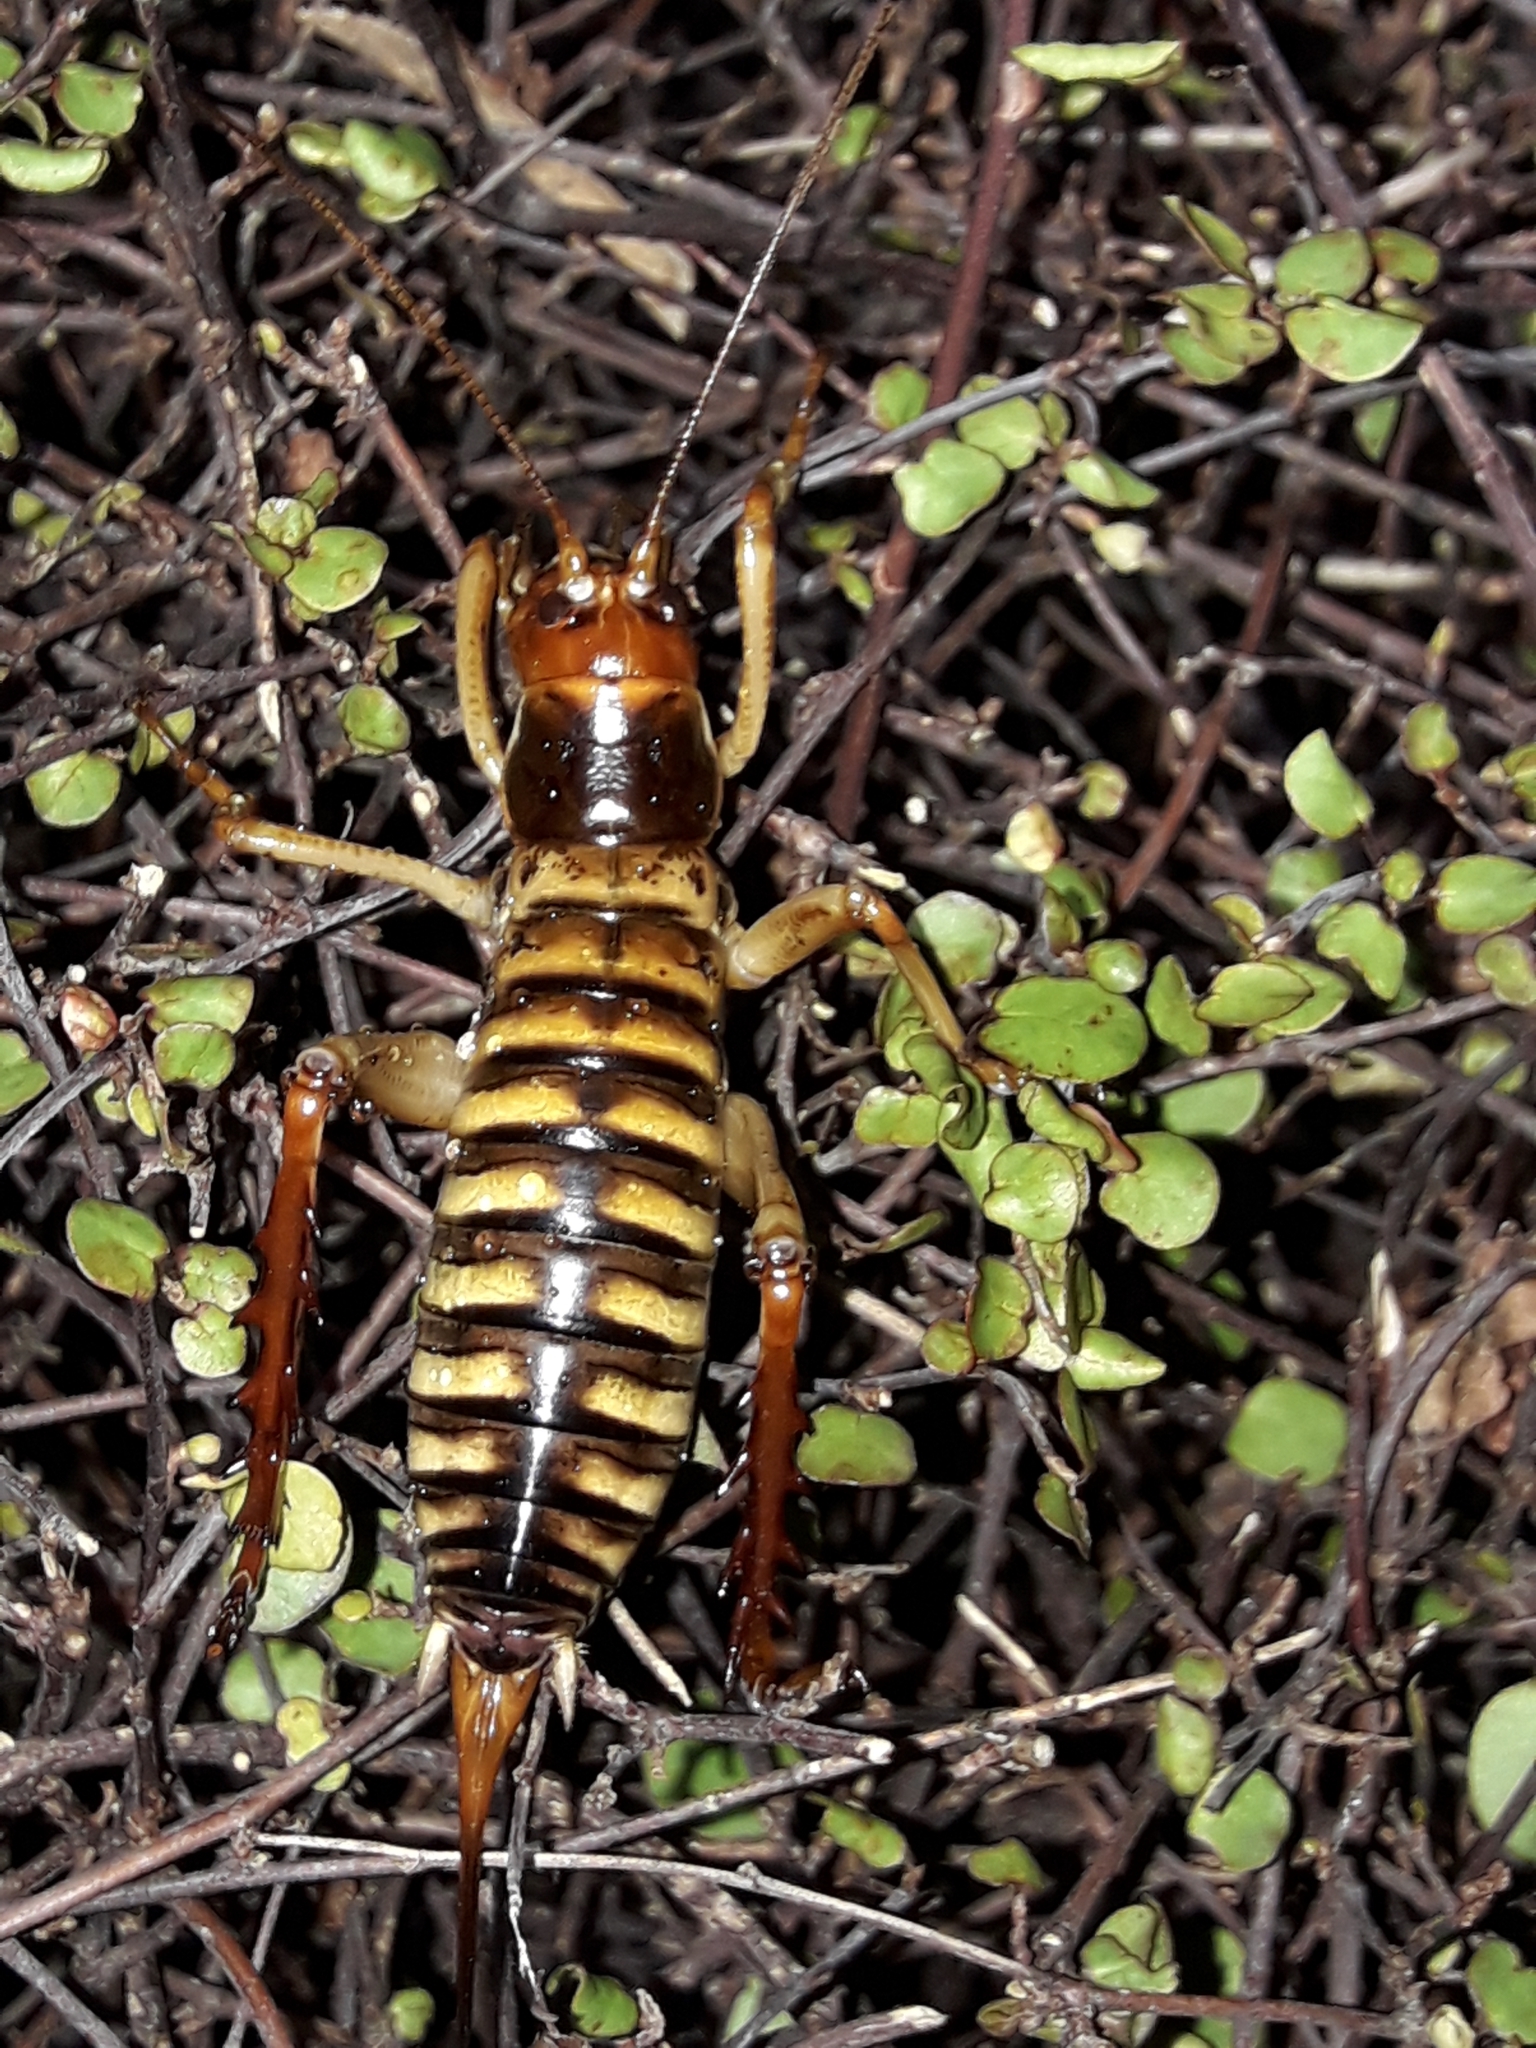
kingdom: Animalia
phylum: Arthropoda
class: Insecta
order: Orthoptera
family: Anostostomatidae
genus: Hemideina
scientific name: Hemideina crassidens
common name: Wellington tree weta
